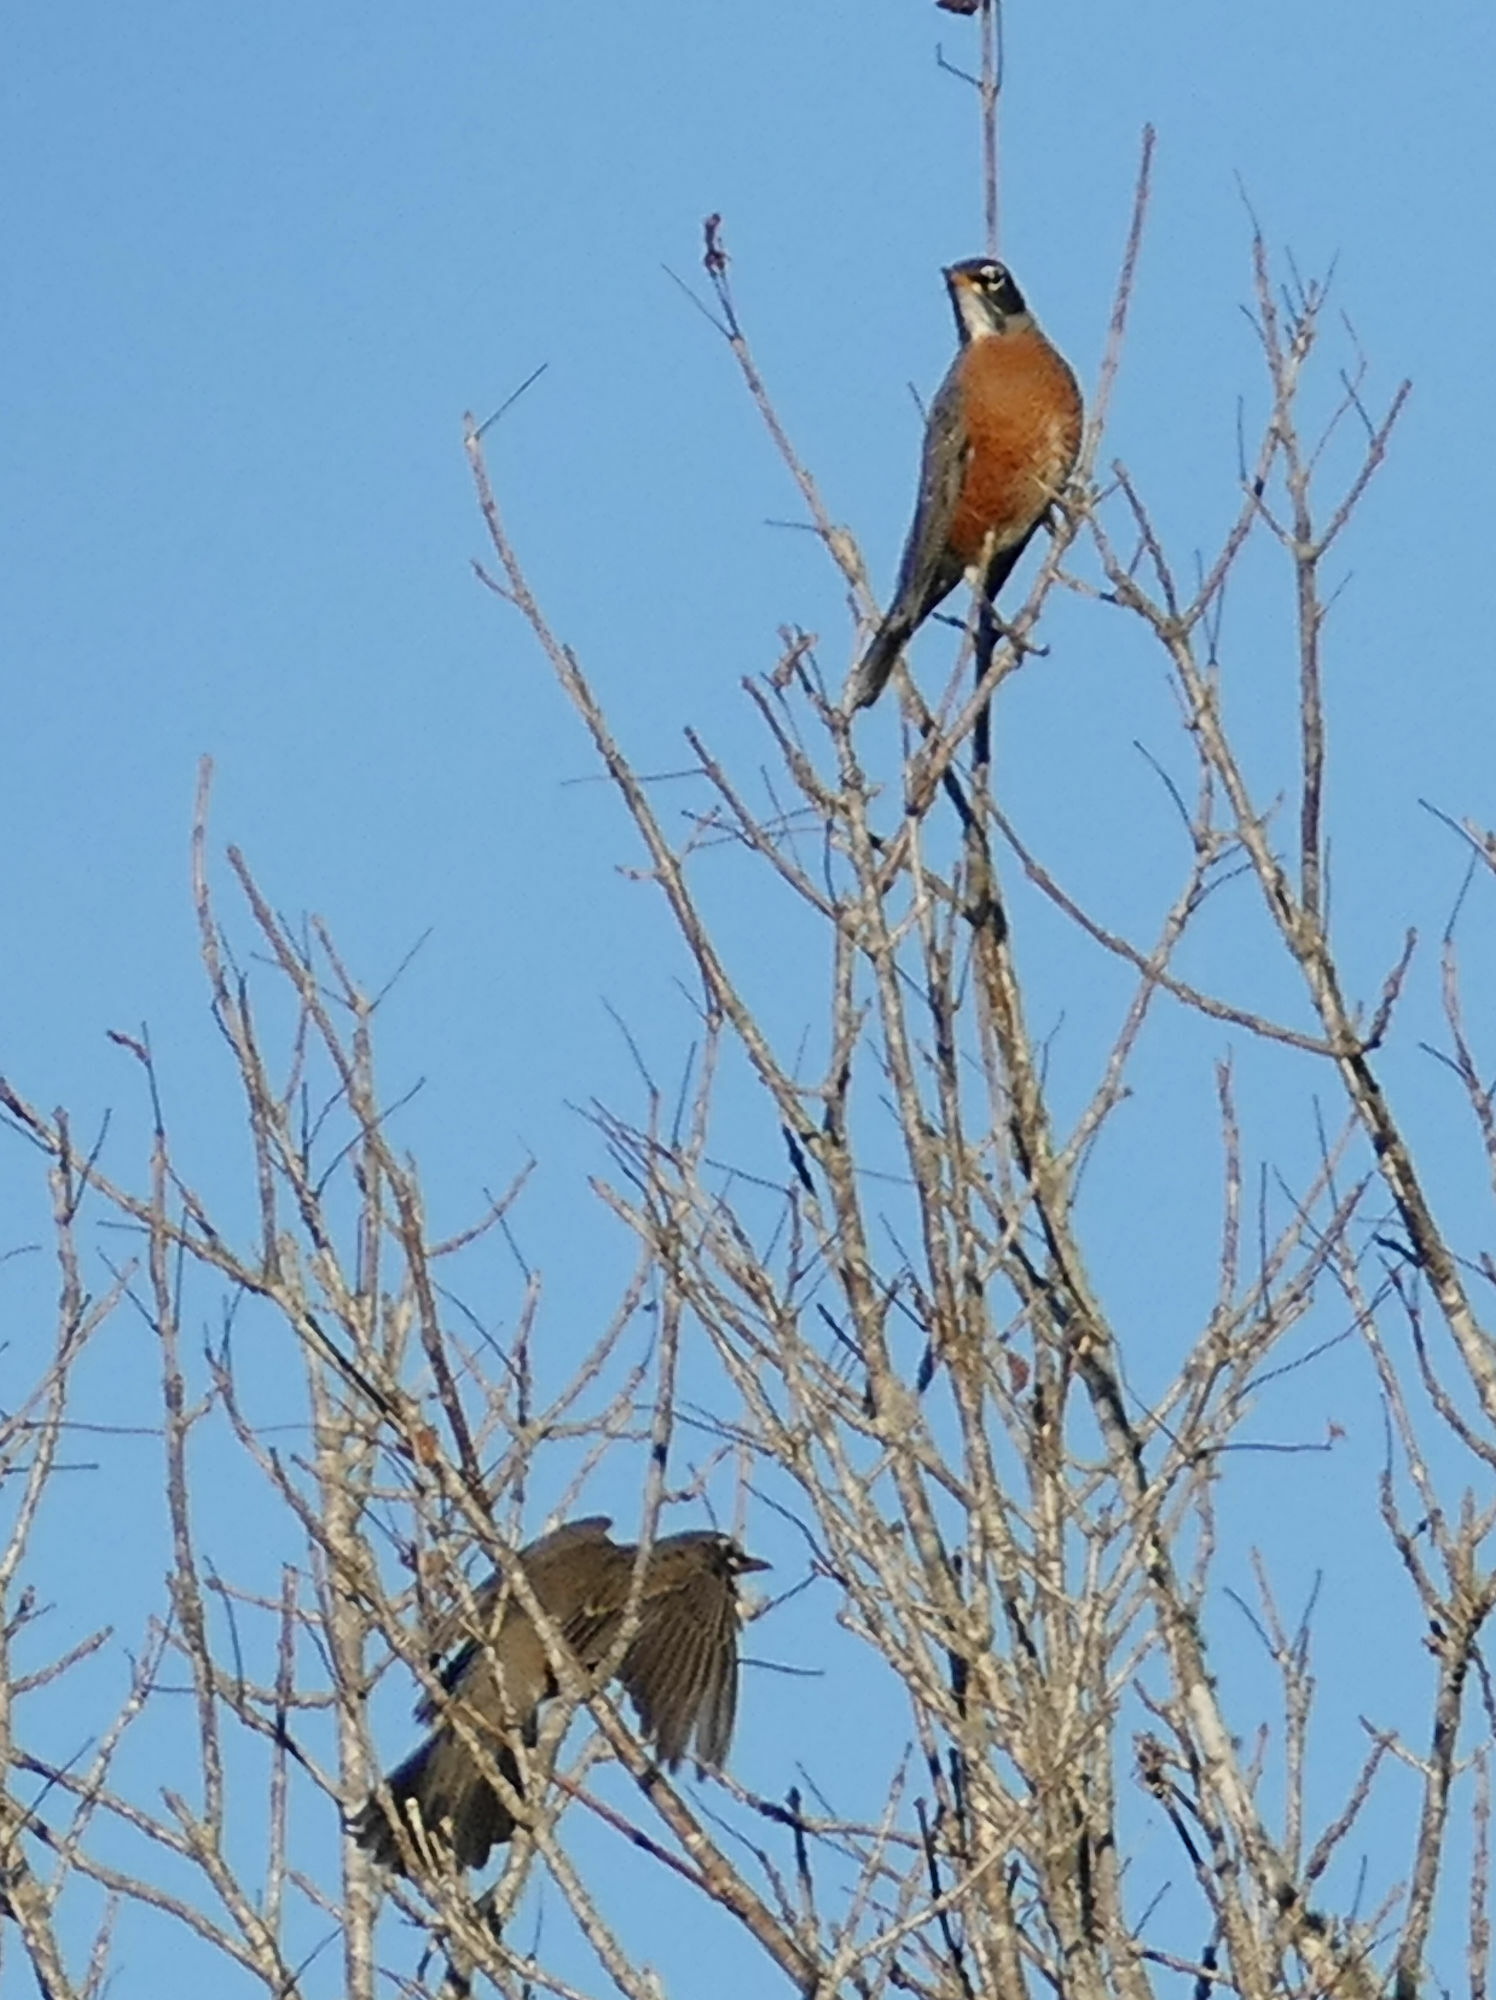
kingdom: Animalia
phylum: Chordata
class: Aves
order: Passeriformes
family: Turdidae
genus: Turdus
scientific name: Turdus migratorius
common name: American robin
